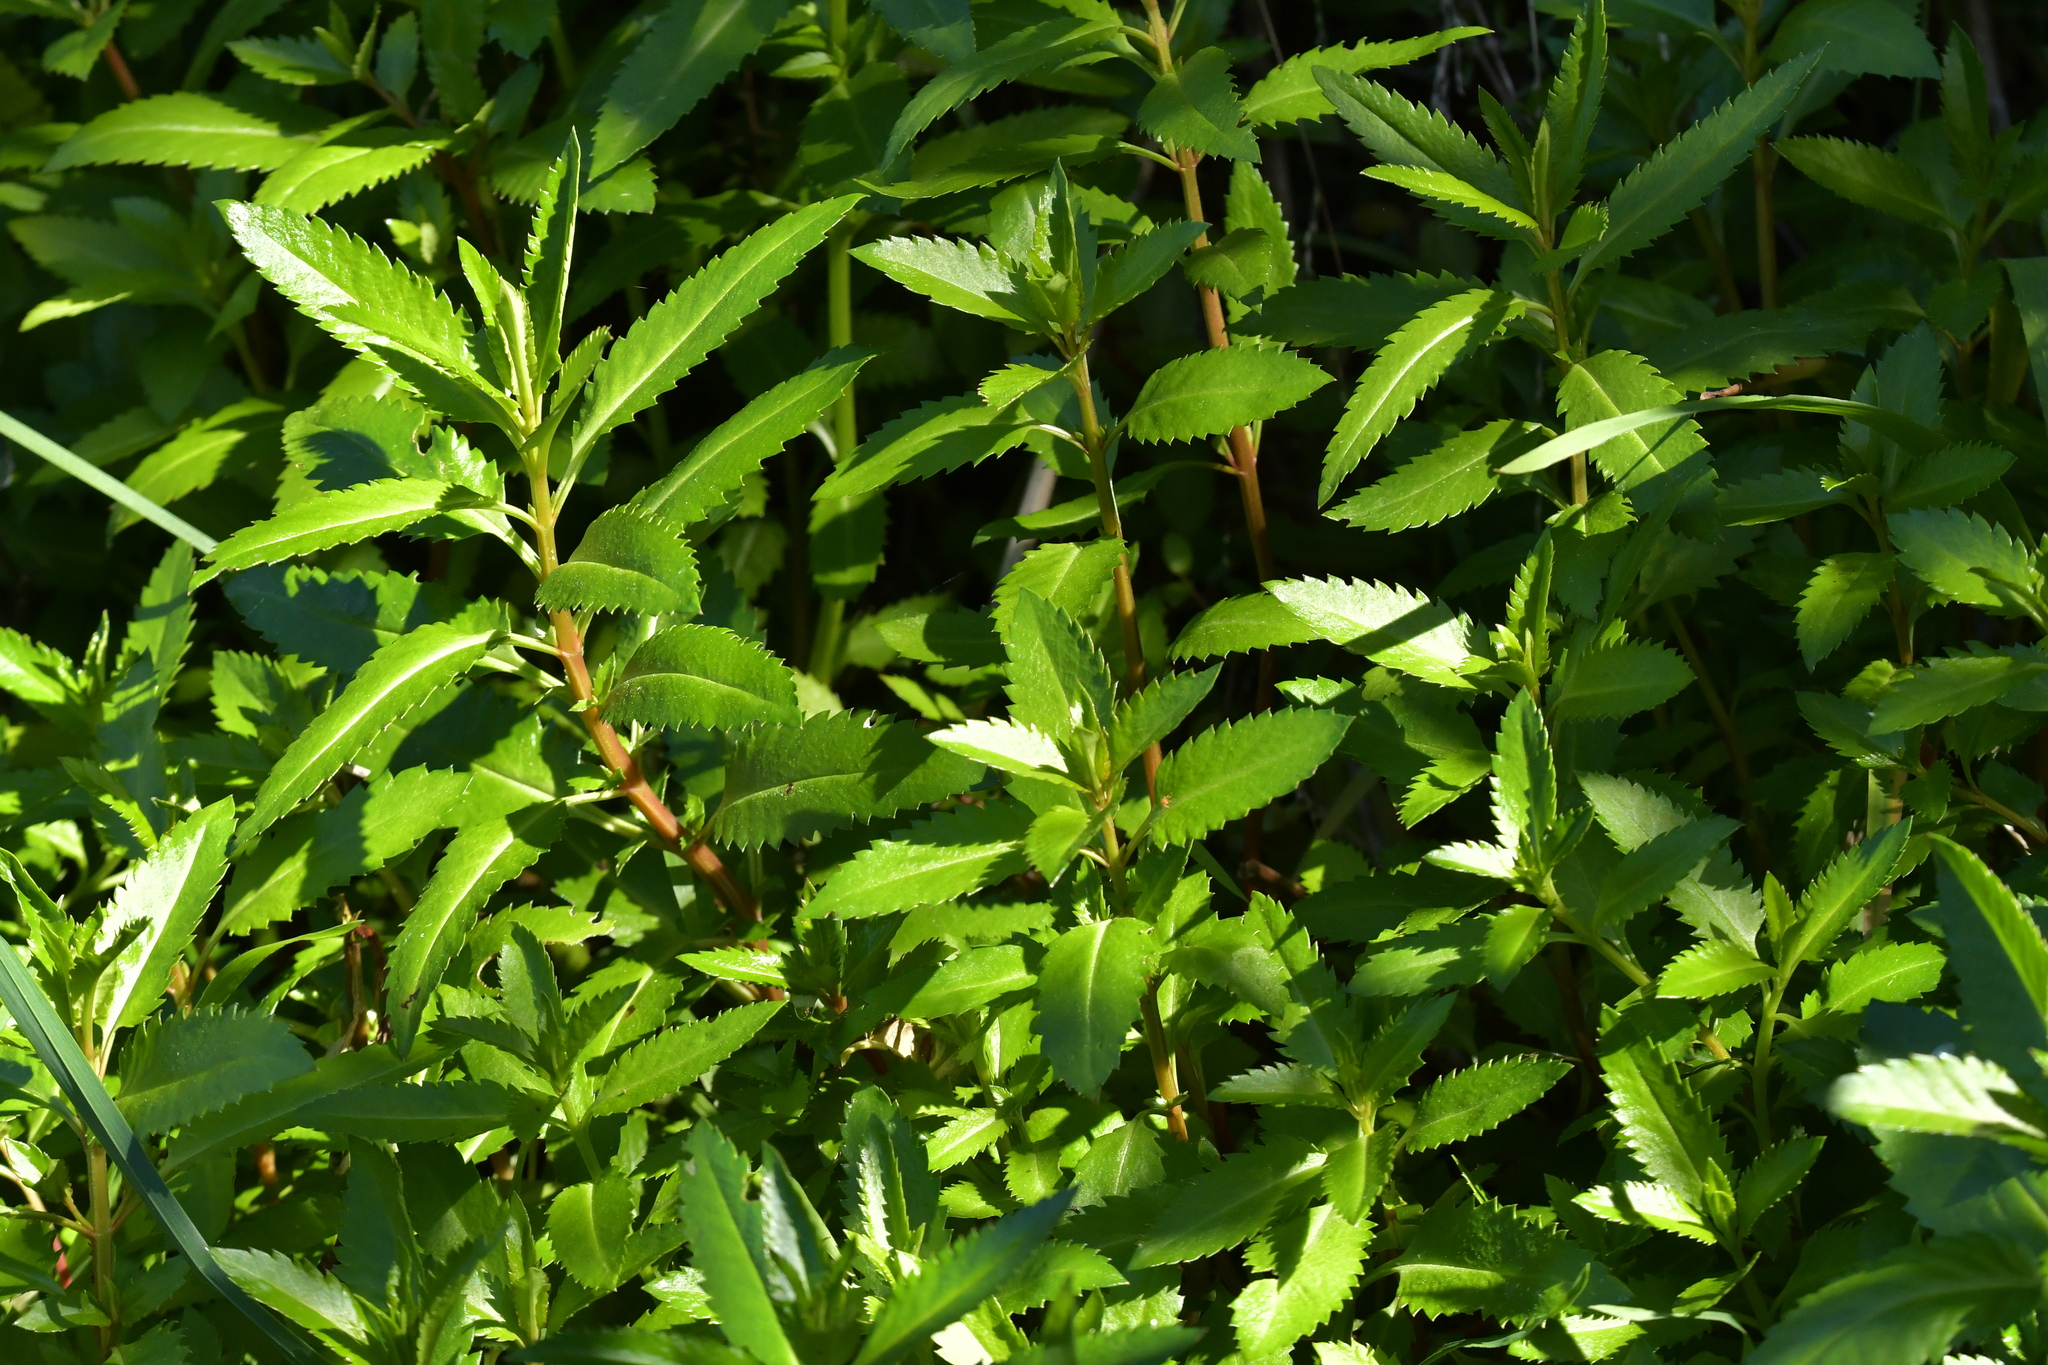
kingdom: Plantae
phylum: Tracheophyta
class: Magnoliopsida
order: Saxifragales
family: Haloragaceae
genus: Haloragis
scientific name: Haloragis erecta
